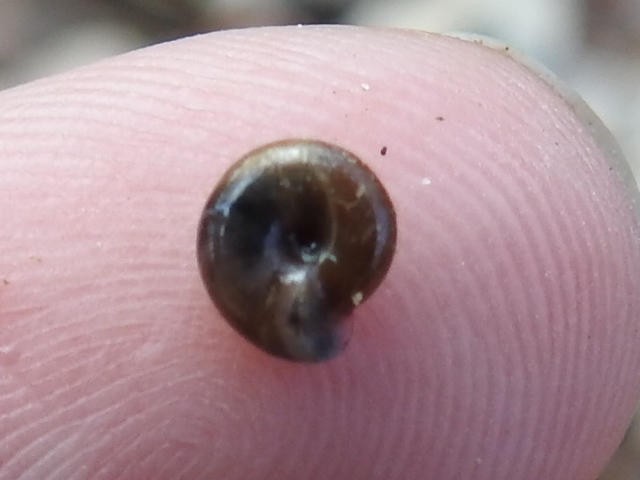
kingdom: Animalia
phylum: Mollusca
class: Gastropoda
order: Stylommatophora
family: Gastrodontidae
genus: Zonitoides
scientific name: Zonitoides arboreus
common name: Quick gloss
